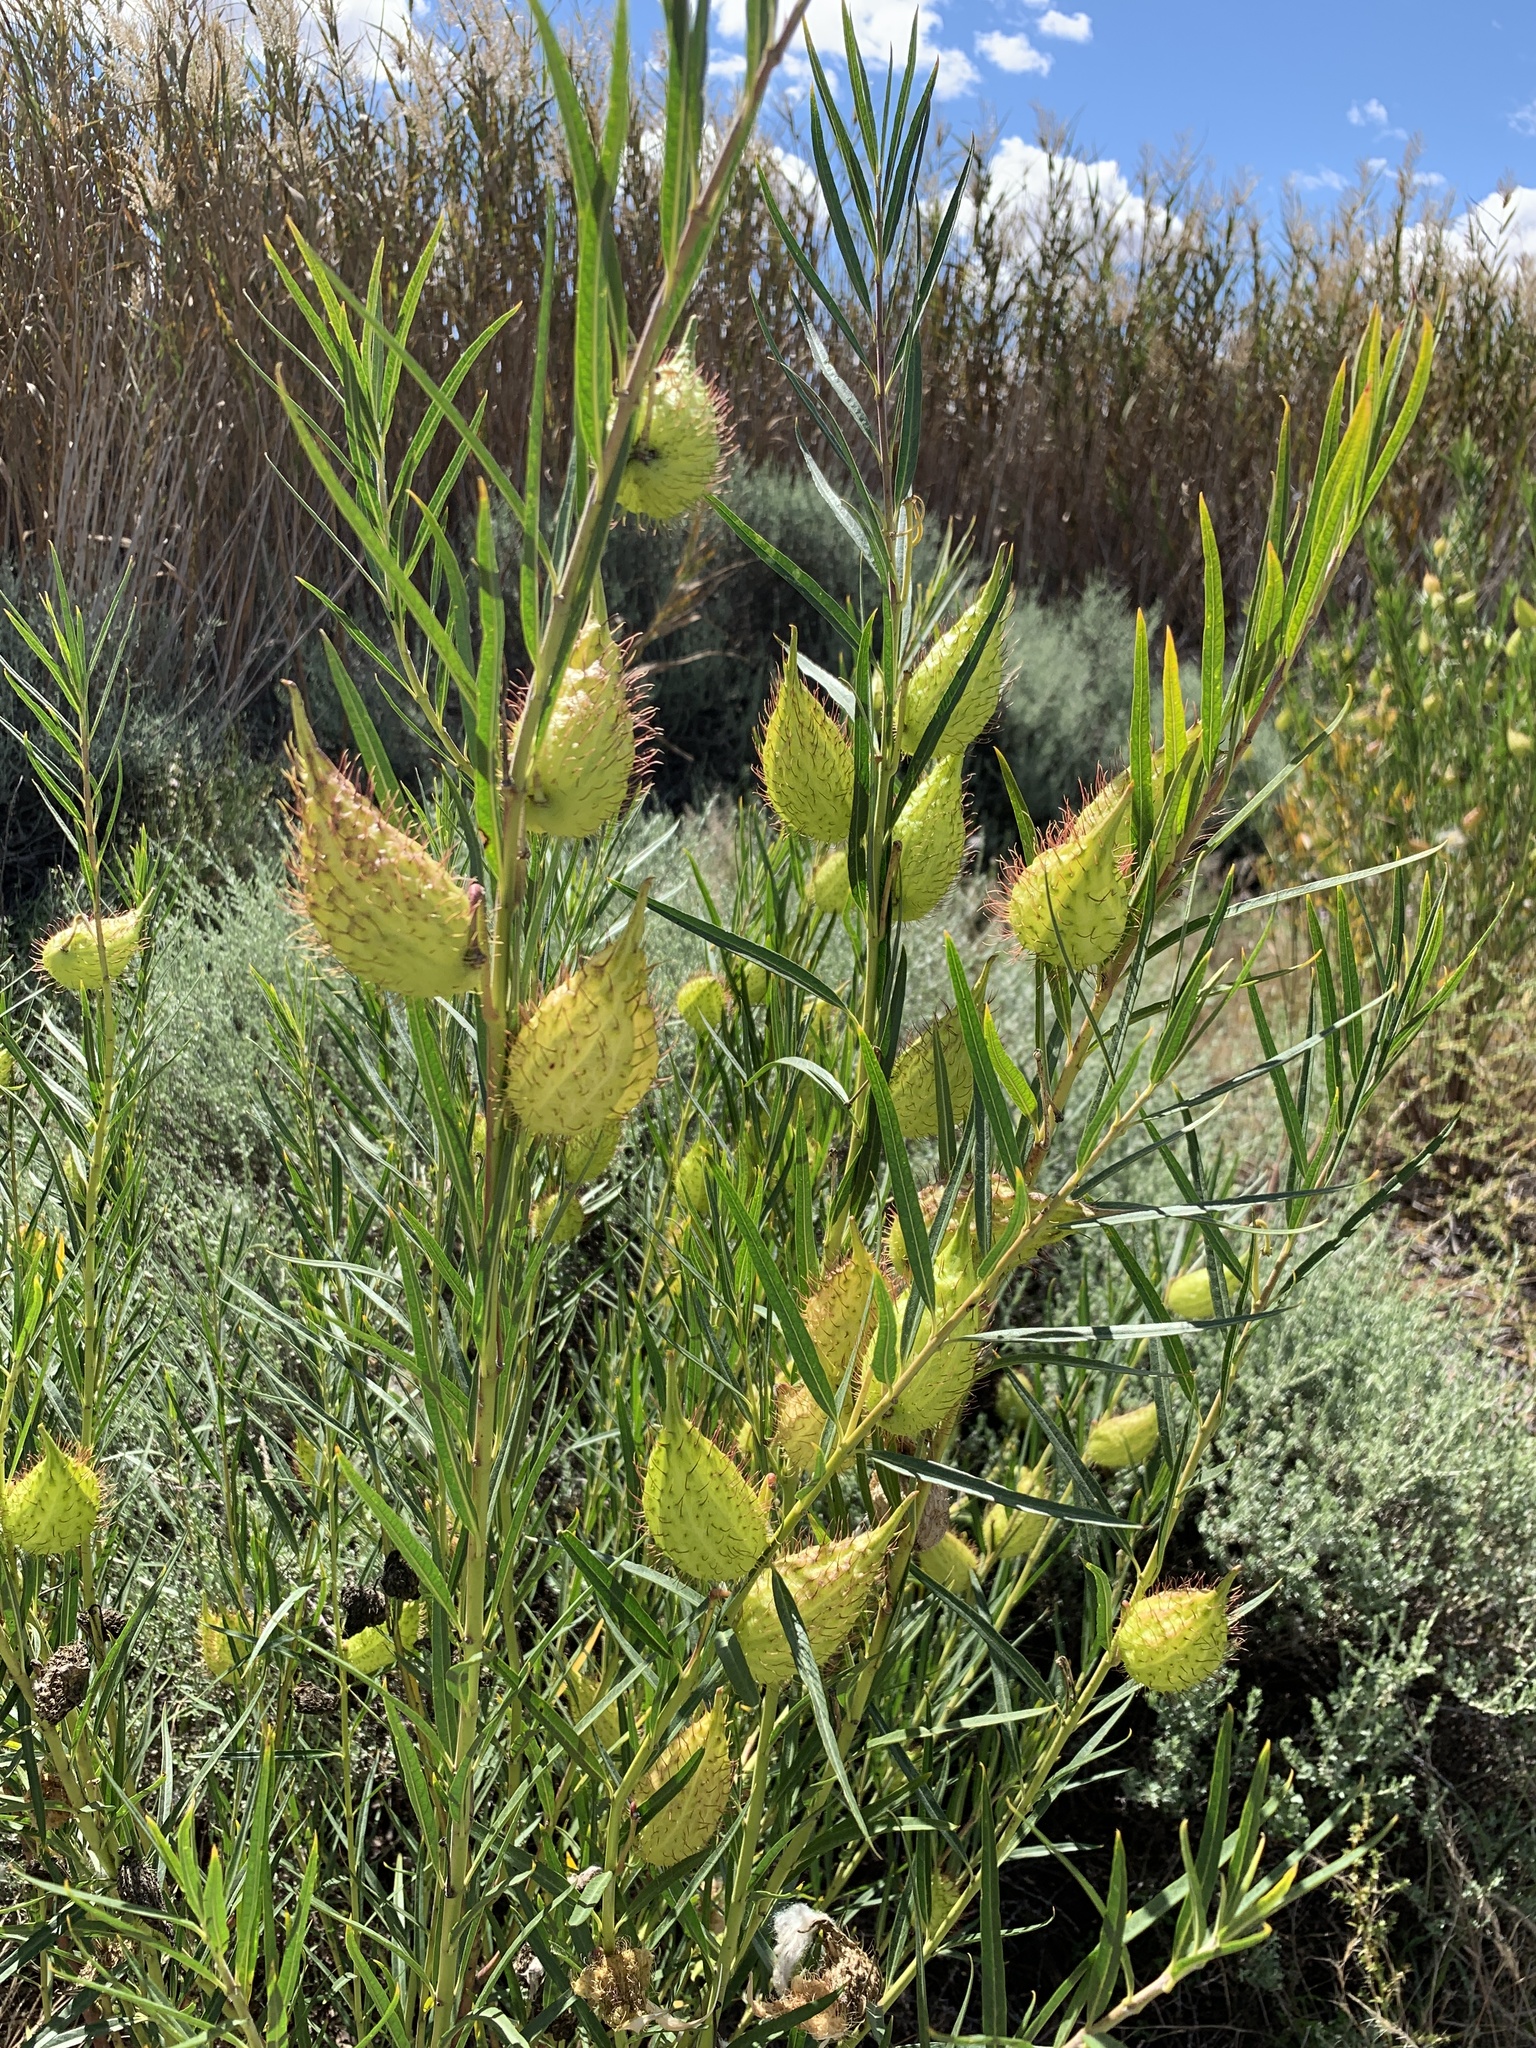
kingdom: Plantae
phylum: Tracheophyta
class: Magnoliopsida
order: Gentianales
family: Apocynaceae
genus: Gomphocarpus
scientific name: Gomphocarpus fruticosus
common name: Milkweed
